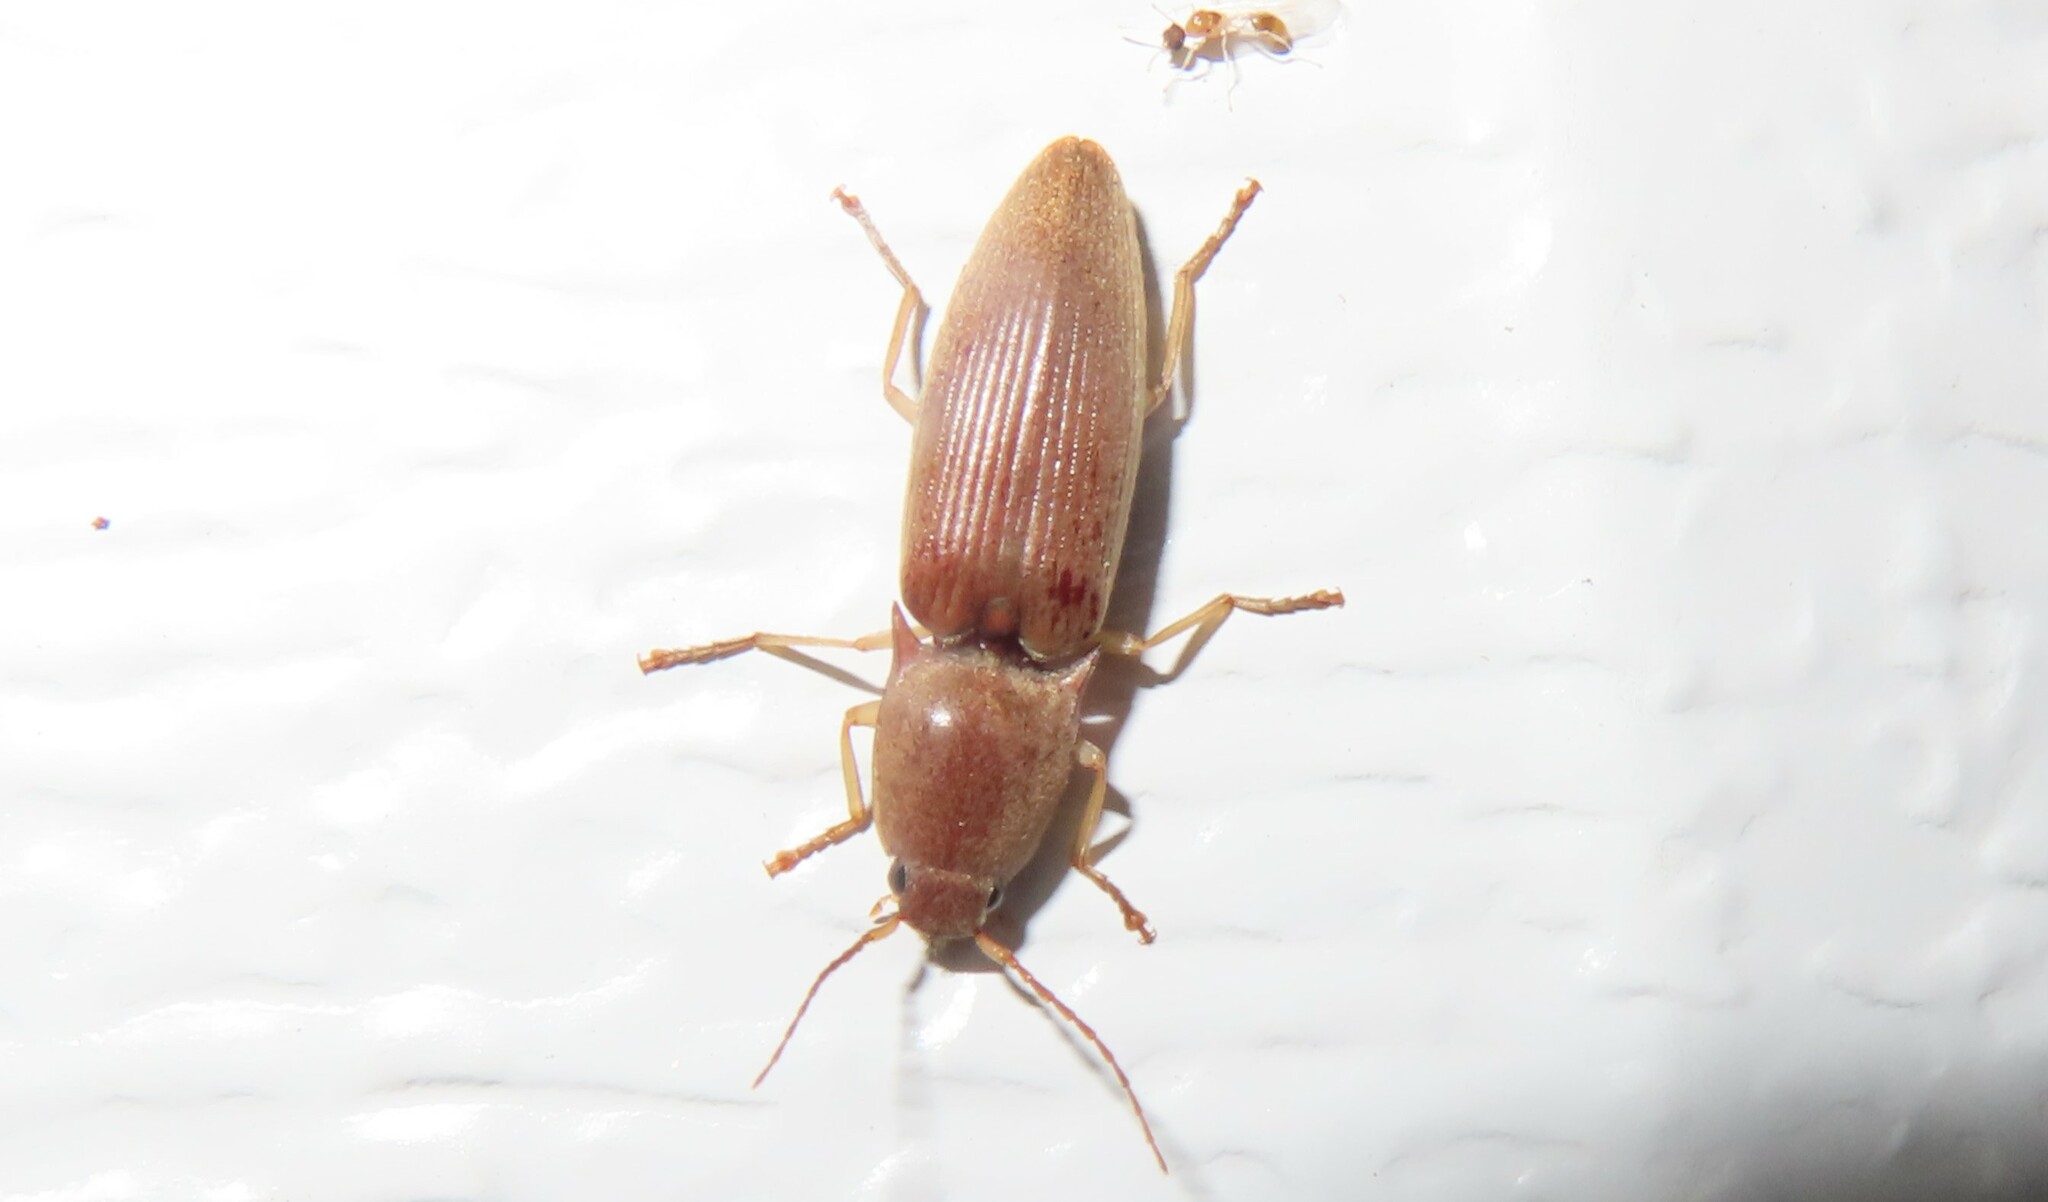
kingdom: Animalia
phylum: Arthropoda
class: Insecta
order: Coleoptera
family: Elateridae
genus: Monocrepidius
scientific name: Monocrepidius lividus
